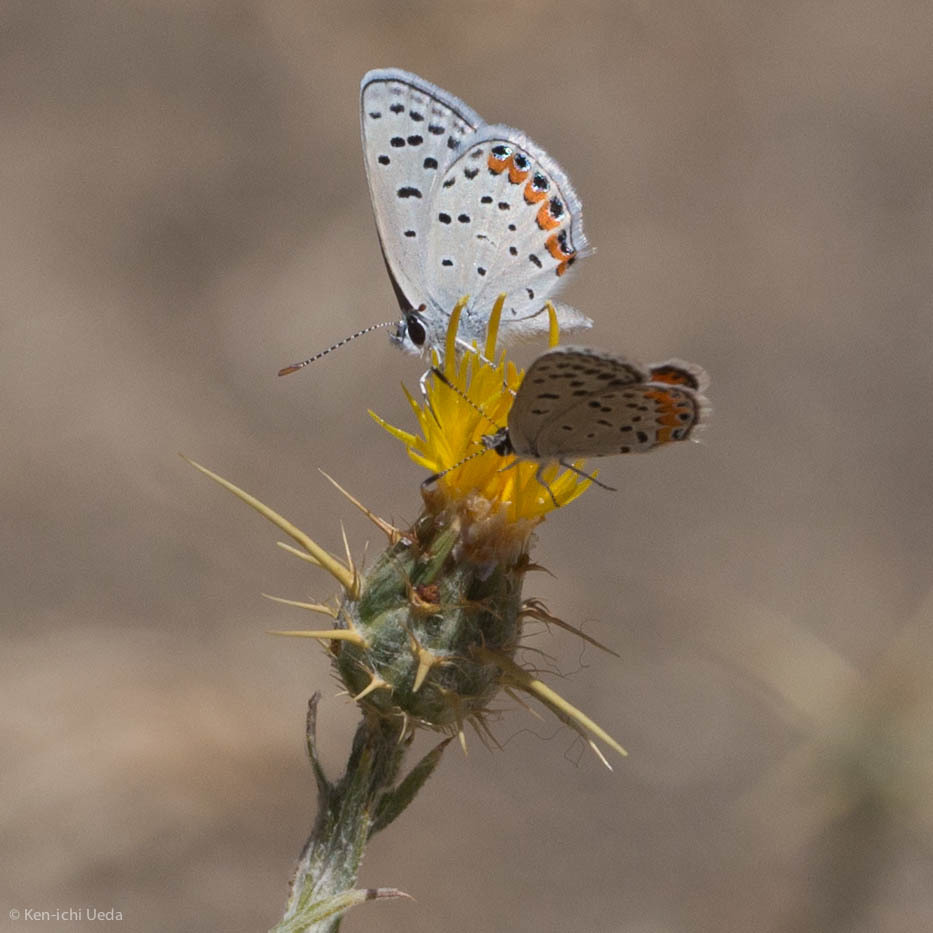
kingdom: Animalia
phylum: Arthropoda
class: Insecta
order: Lepidoptera
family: Lycaenidae
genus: Icaricia
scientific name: Icaricia acmon
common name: Acmon blue
